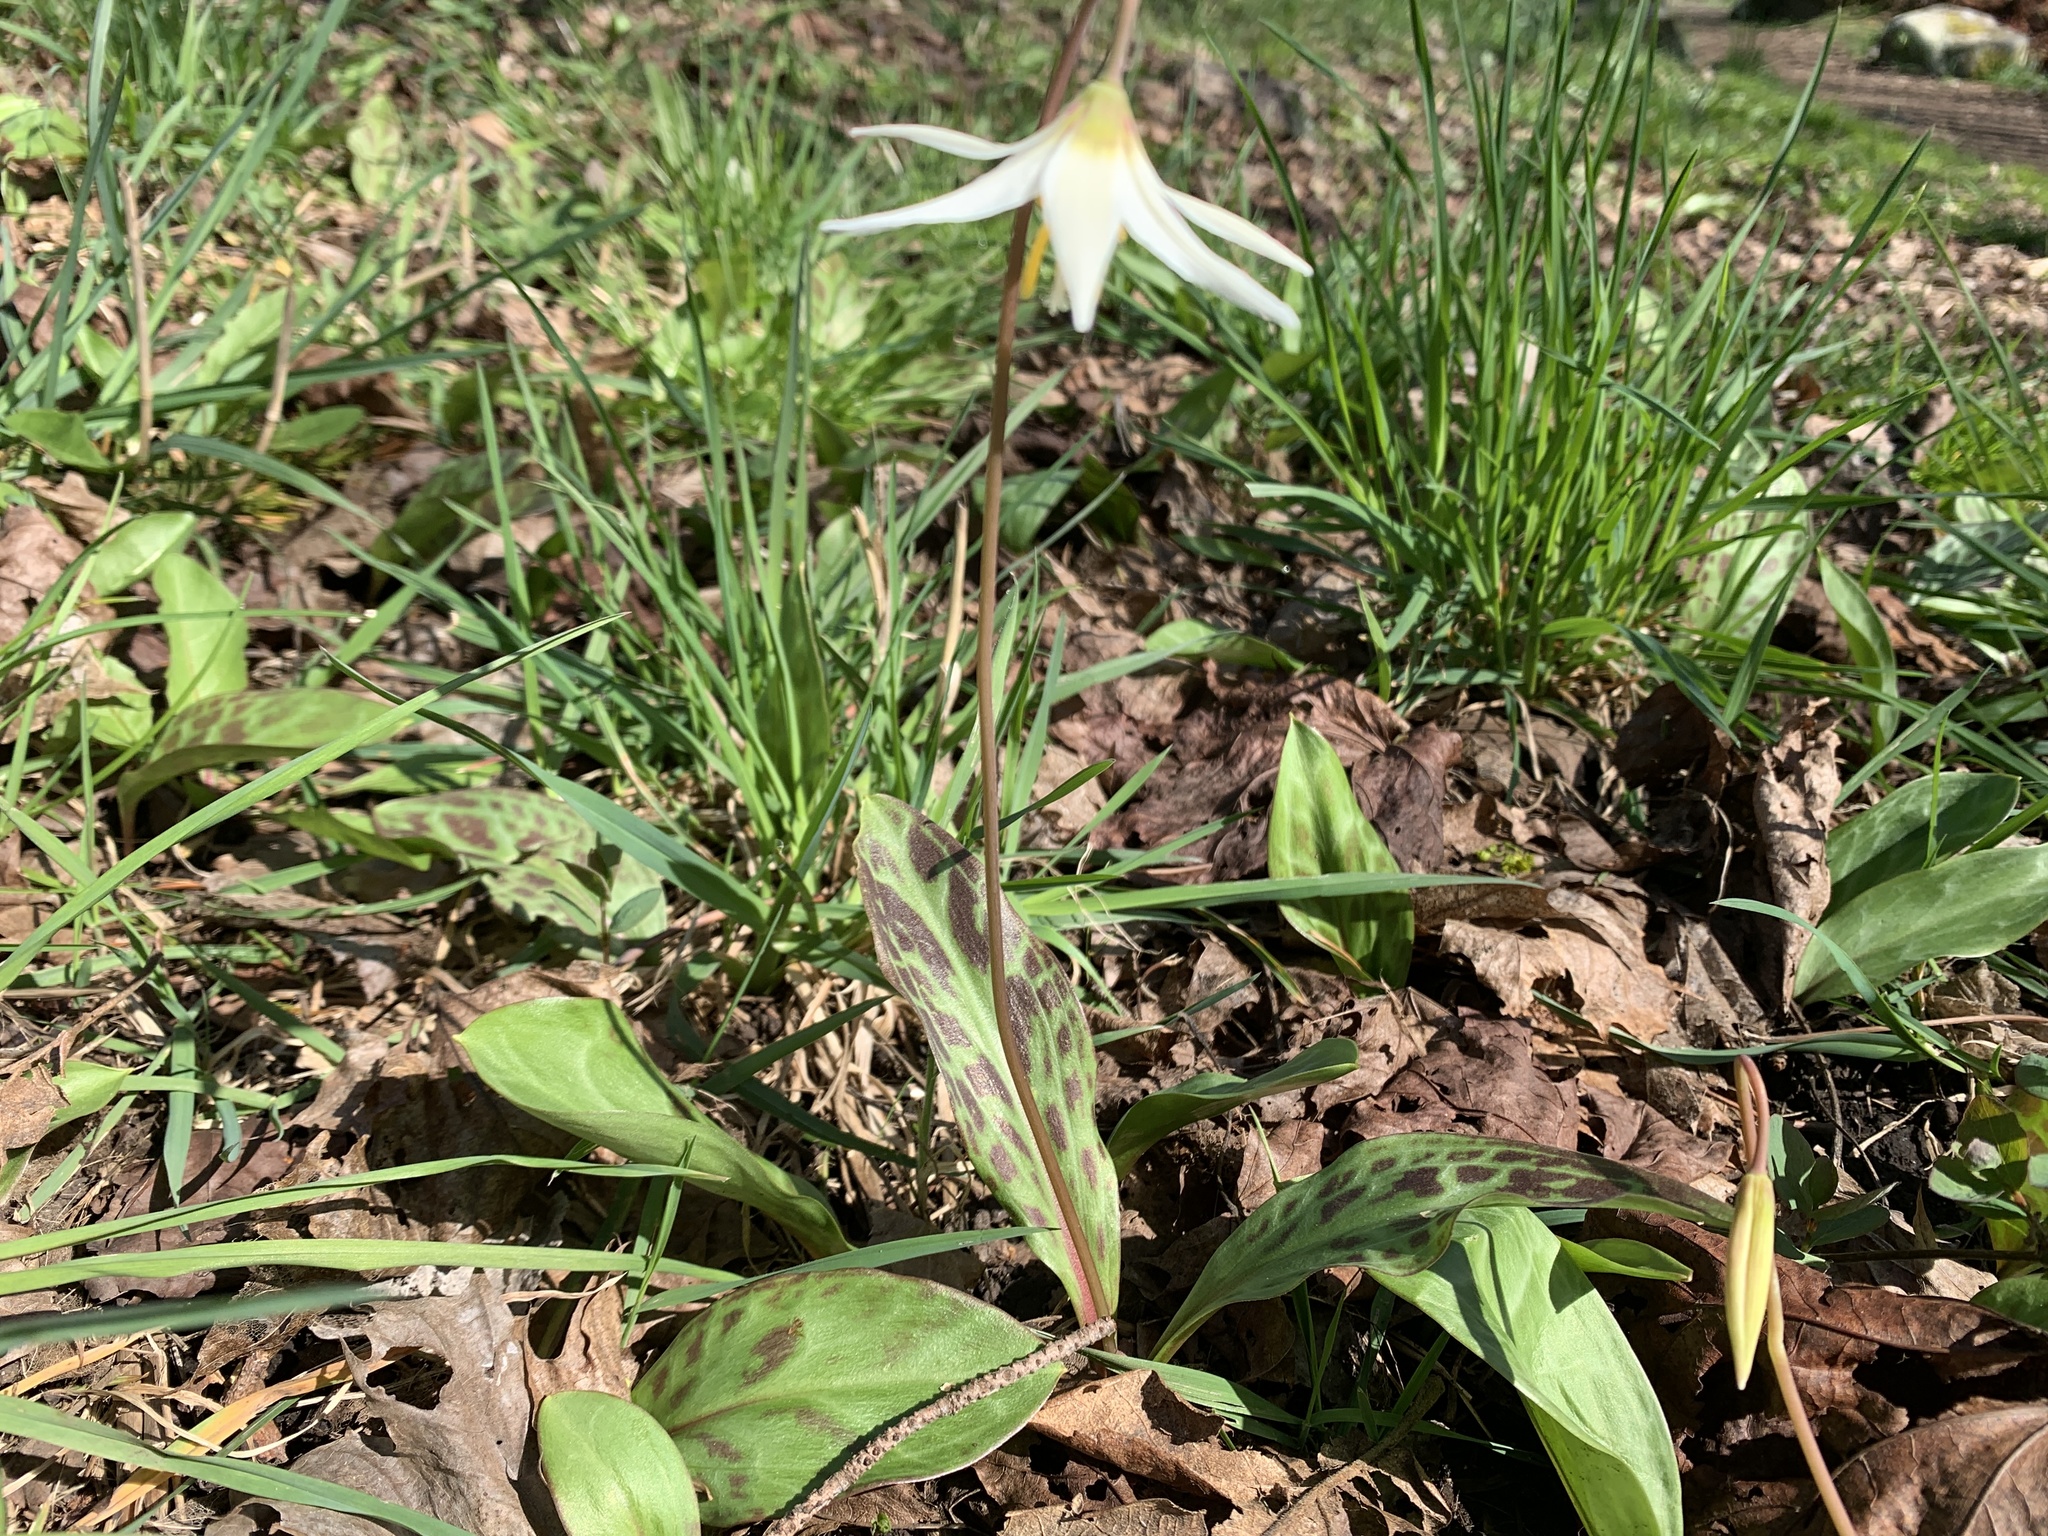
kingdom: Plantae
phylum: Tracheophyta
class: Liliopsida
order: Liliales
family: Liliaceae
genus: Erythronium
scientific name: Erythronium oregonum
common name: Giant adder's-tongue
